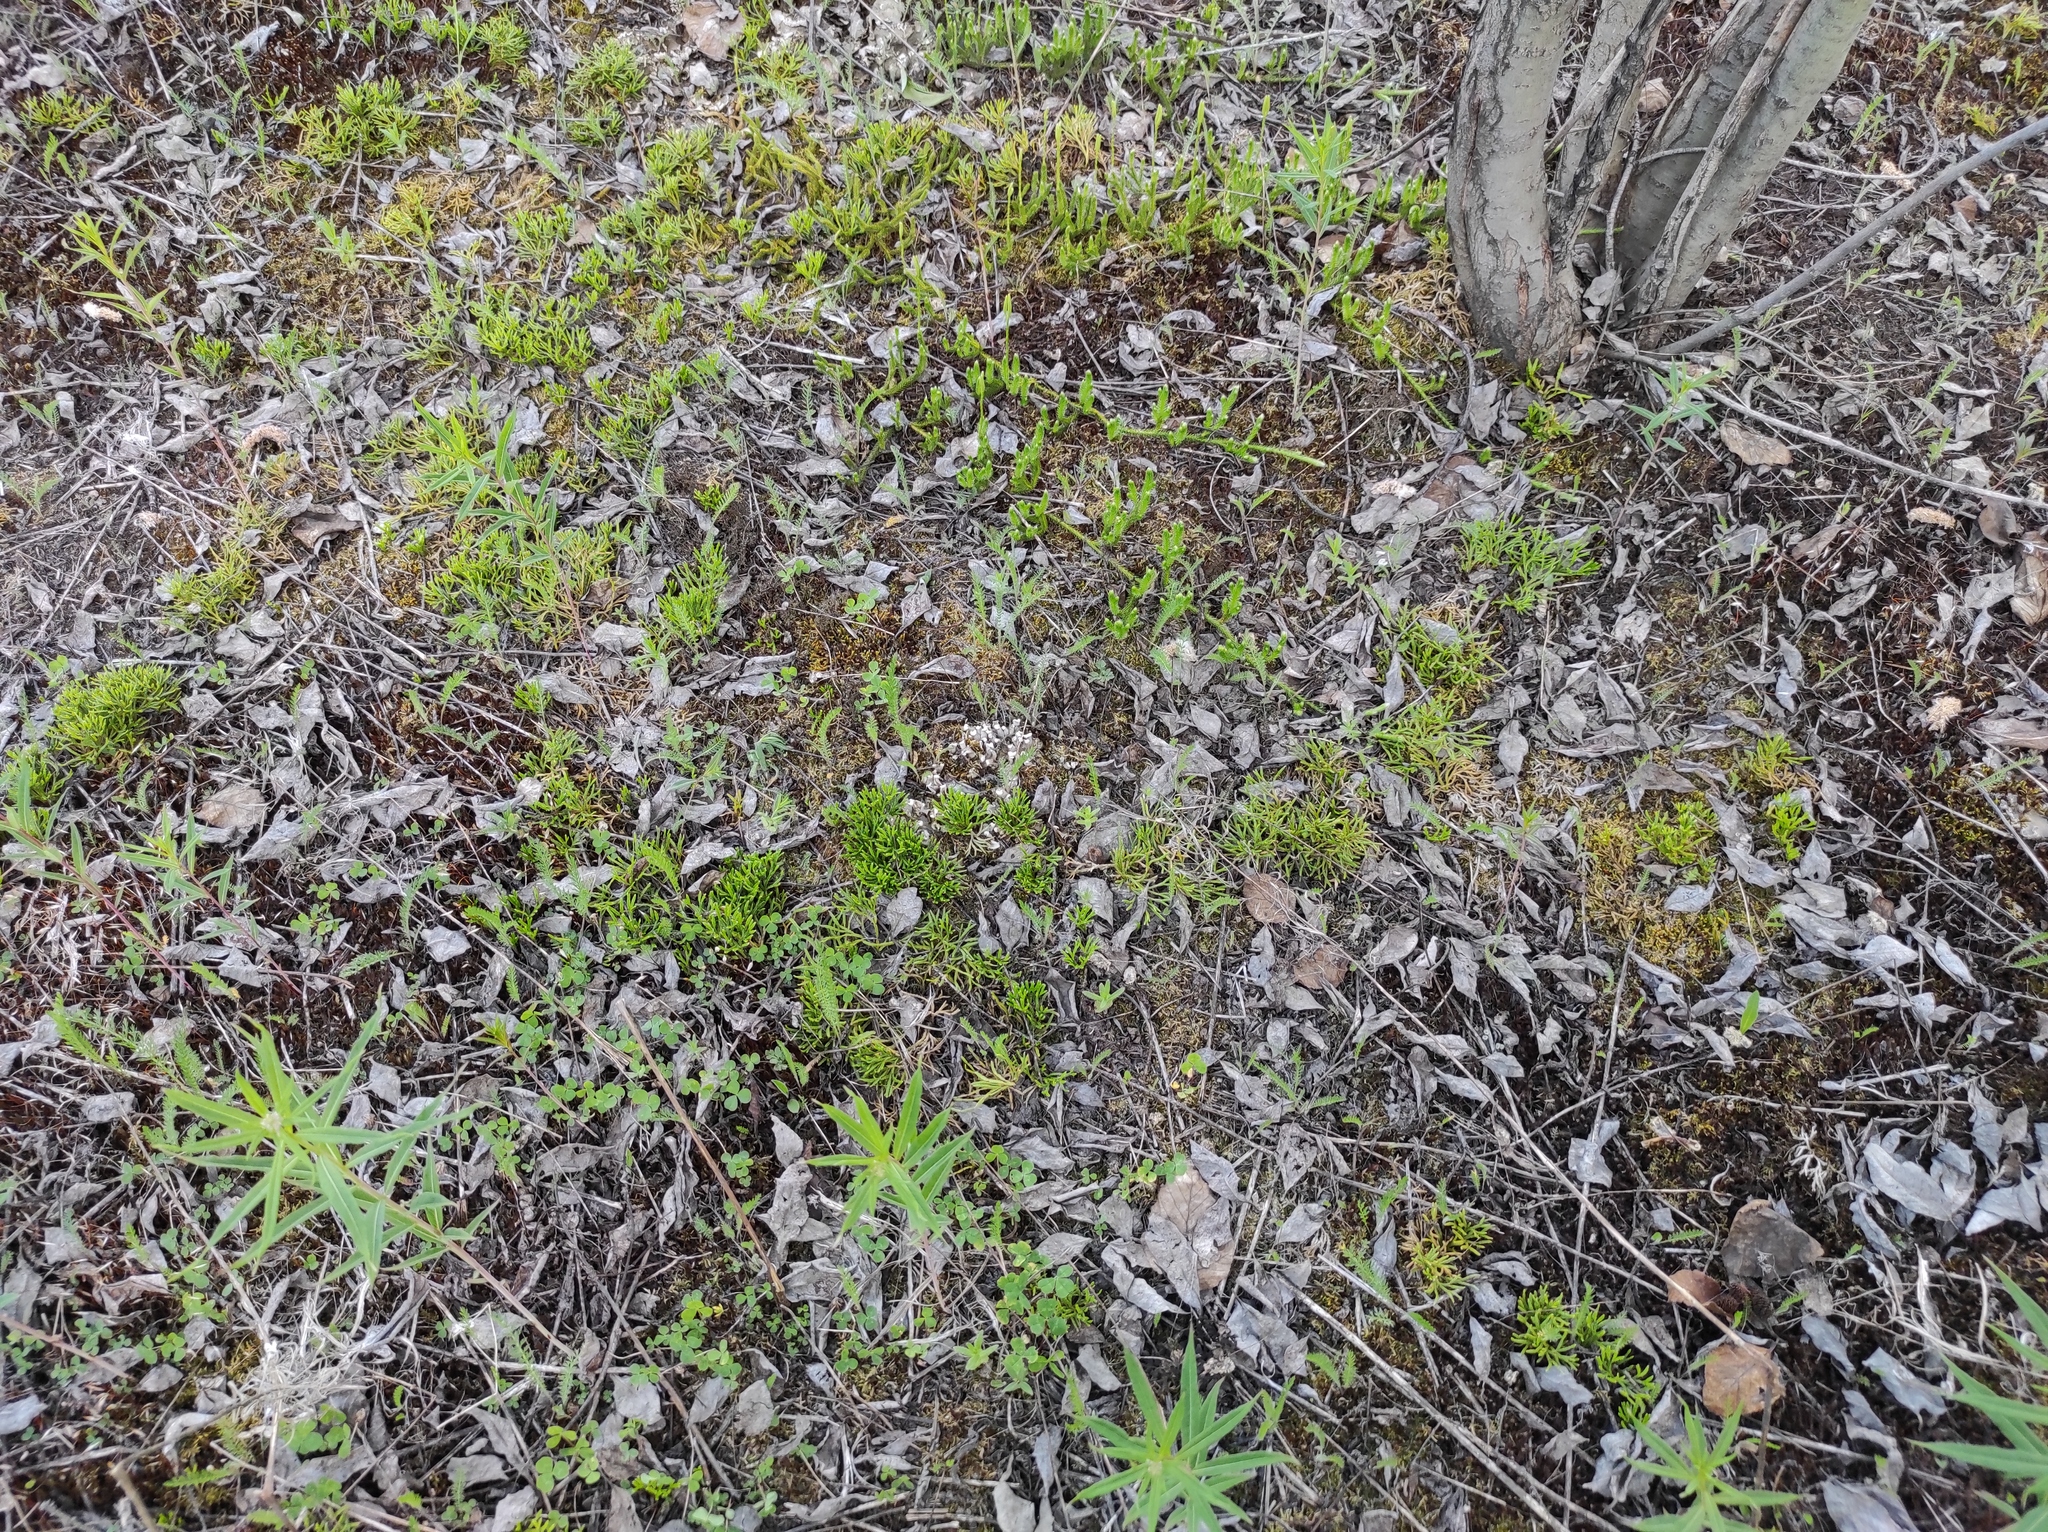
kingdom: Plantae
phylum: Tracheophyta
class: Lycopodiopsida
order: Lycopodiales
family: Lycopodiaceae
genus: Lycopodium
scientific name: Lycopodium clavatum
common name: Stag's-horn clubmoss
